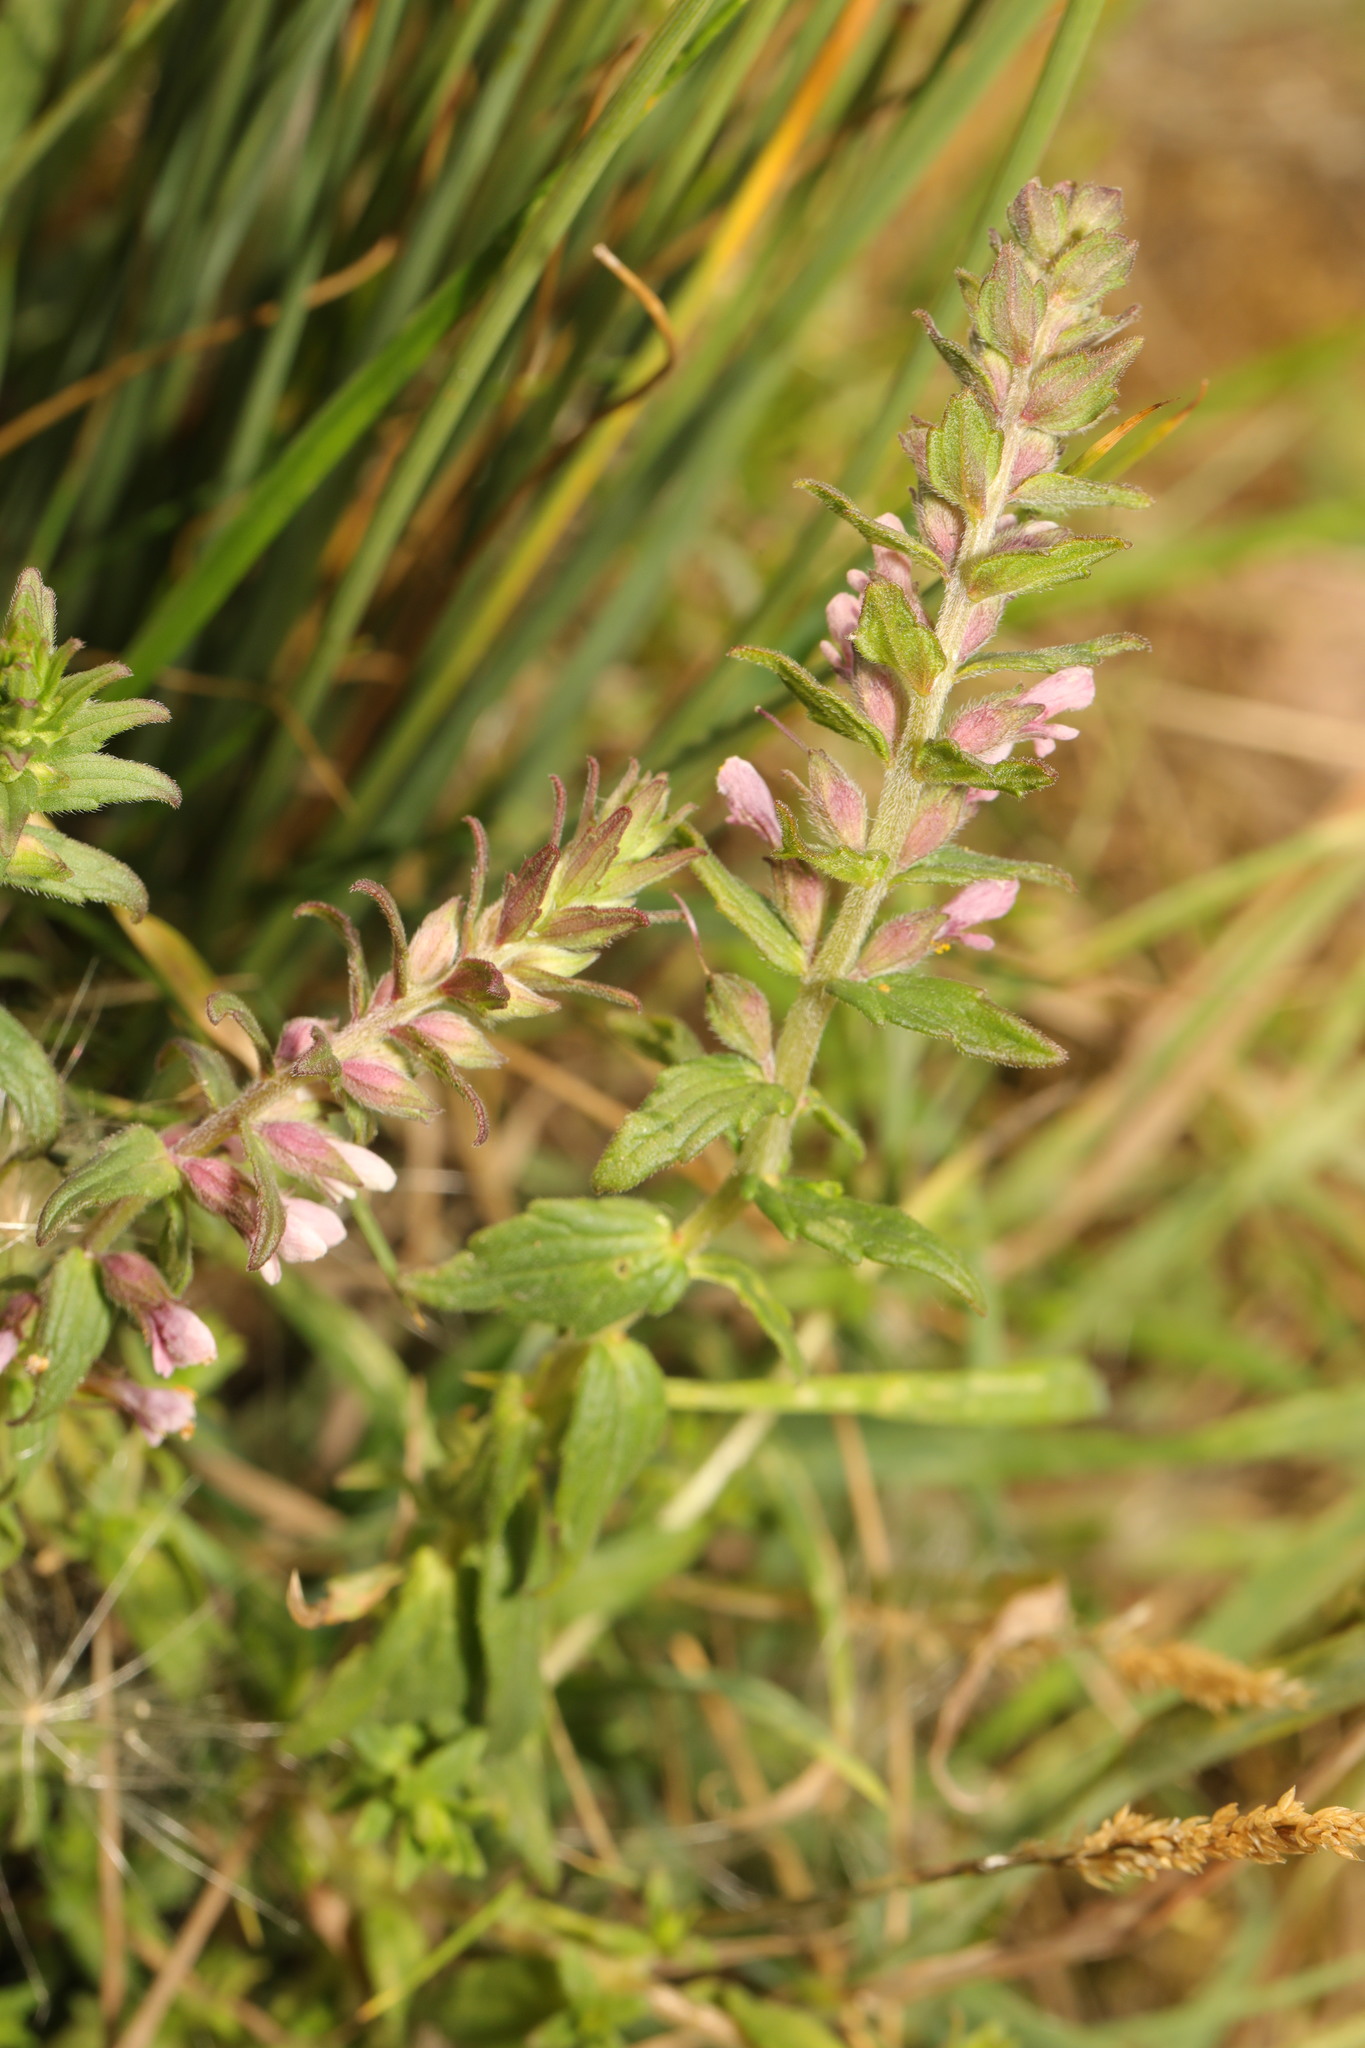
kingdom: Plantae
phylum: Tracheophyta
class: Magnoliopsida
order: Lamiales
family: Orobanchaceae
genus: Odontites
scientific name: Odontites vernus
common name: Red bartsia
